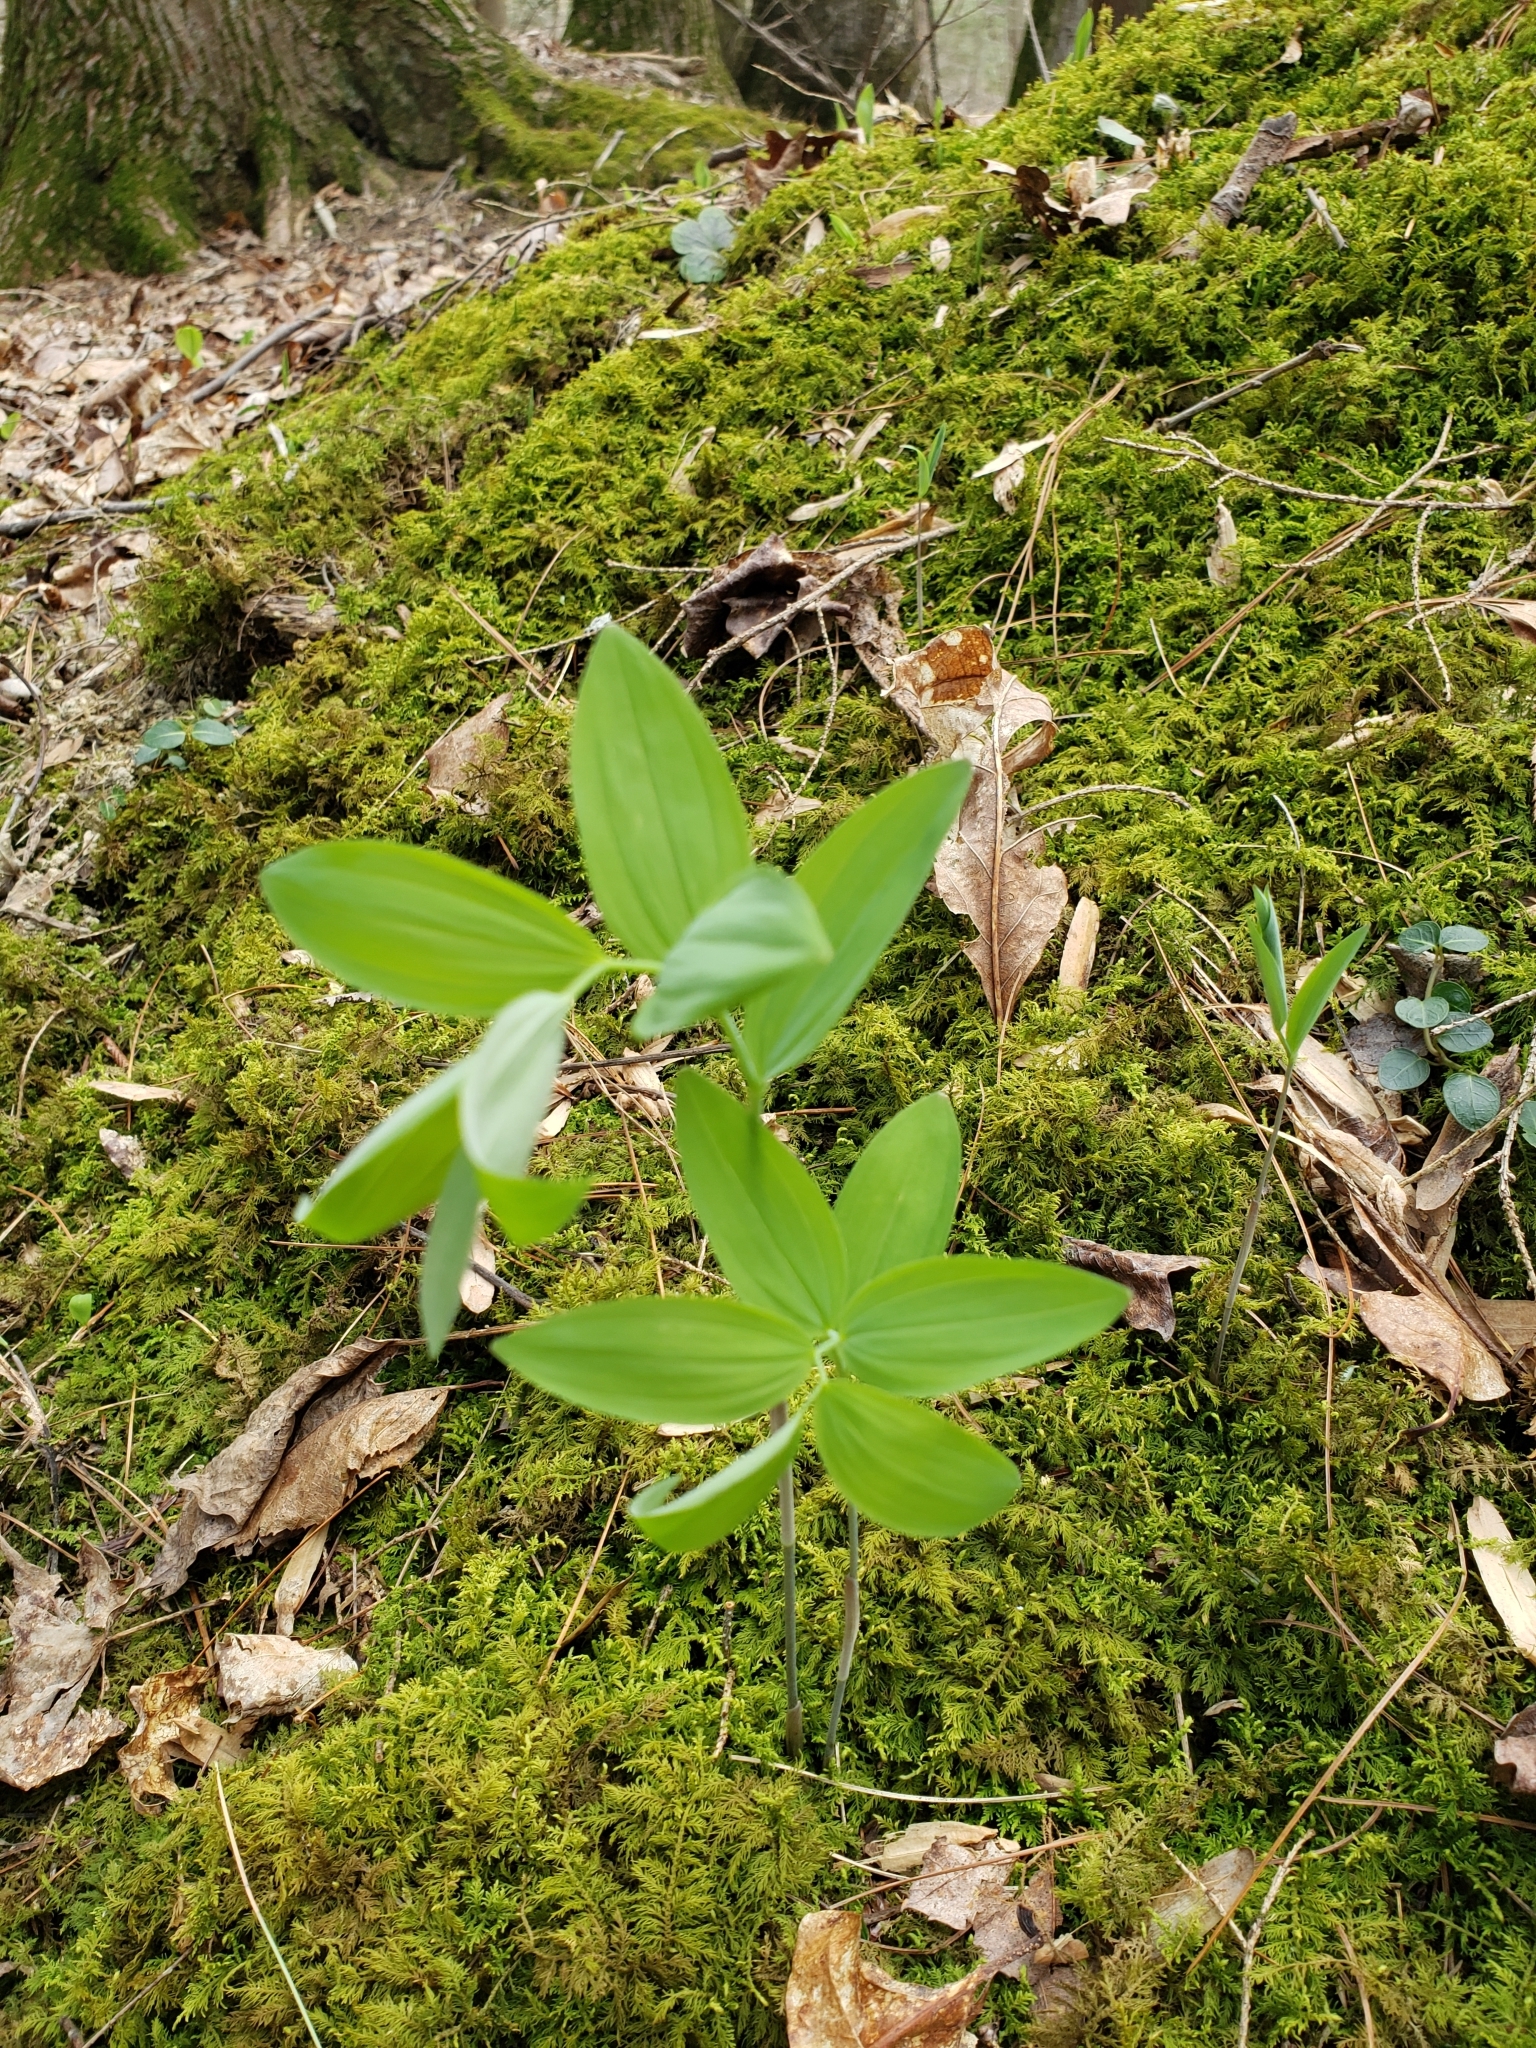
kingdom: Plantae
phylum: Tracheophyta
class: Liliopsida
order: Asparagales
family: Asparagaceae
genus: Polygonatum
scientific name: Polygonatum pubescens
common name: Downy solomon's seal
